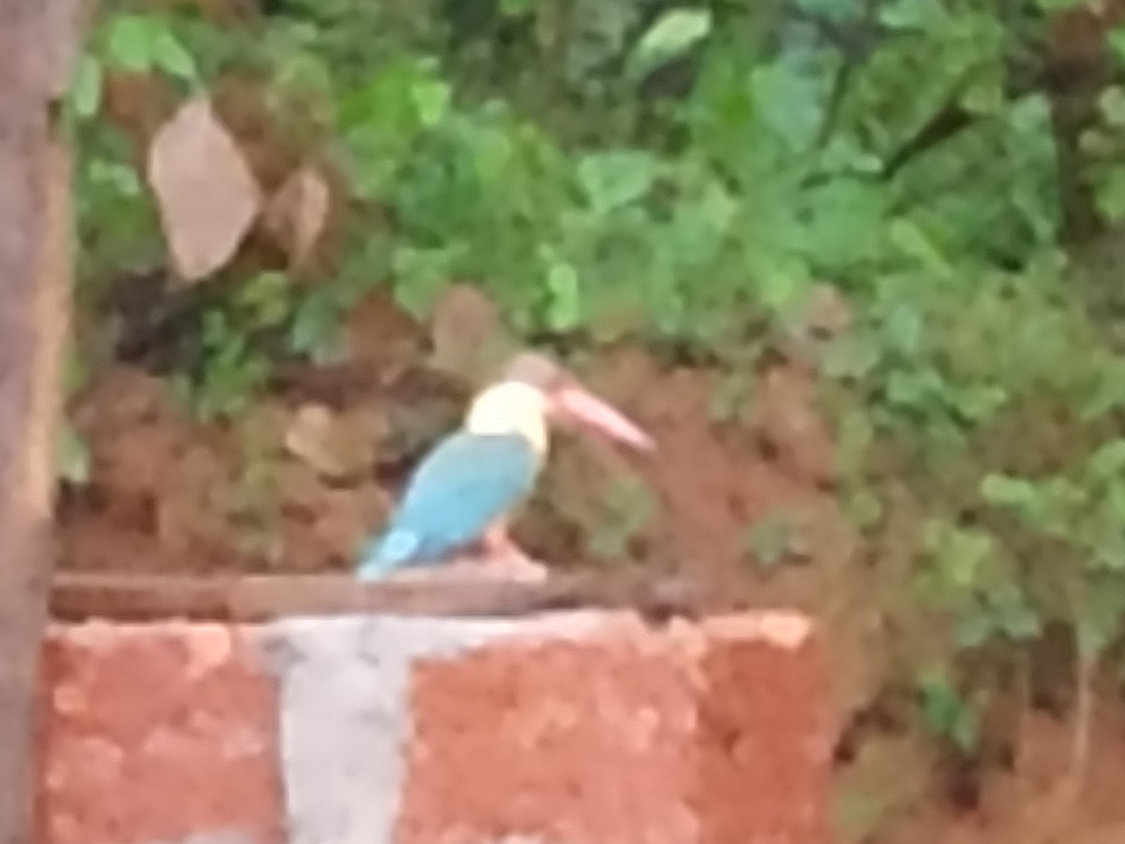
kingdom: Animalia
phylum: Chordata
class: Aves
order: Coraciiformes
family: Alcedinidae
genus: Pelargopsis
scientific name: Pelargopsis capensis
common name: Stork-billed kingfisher
